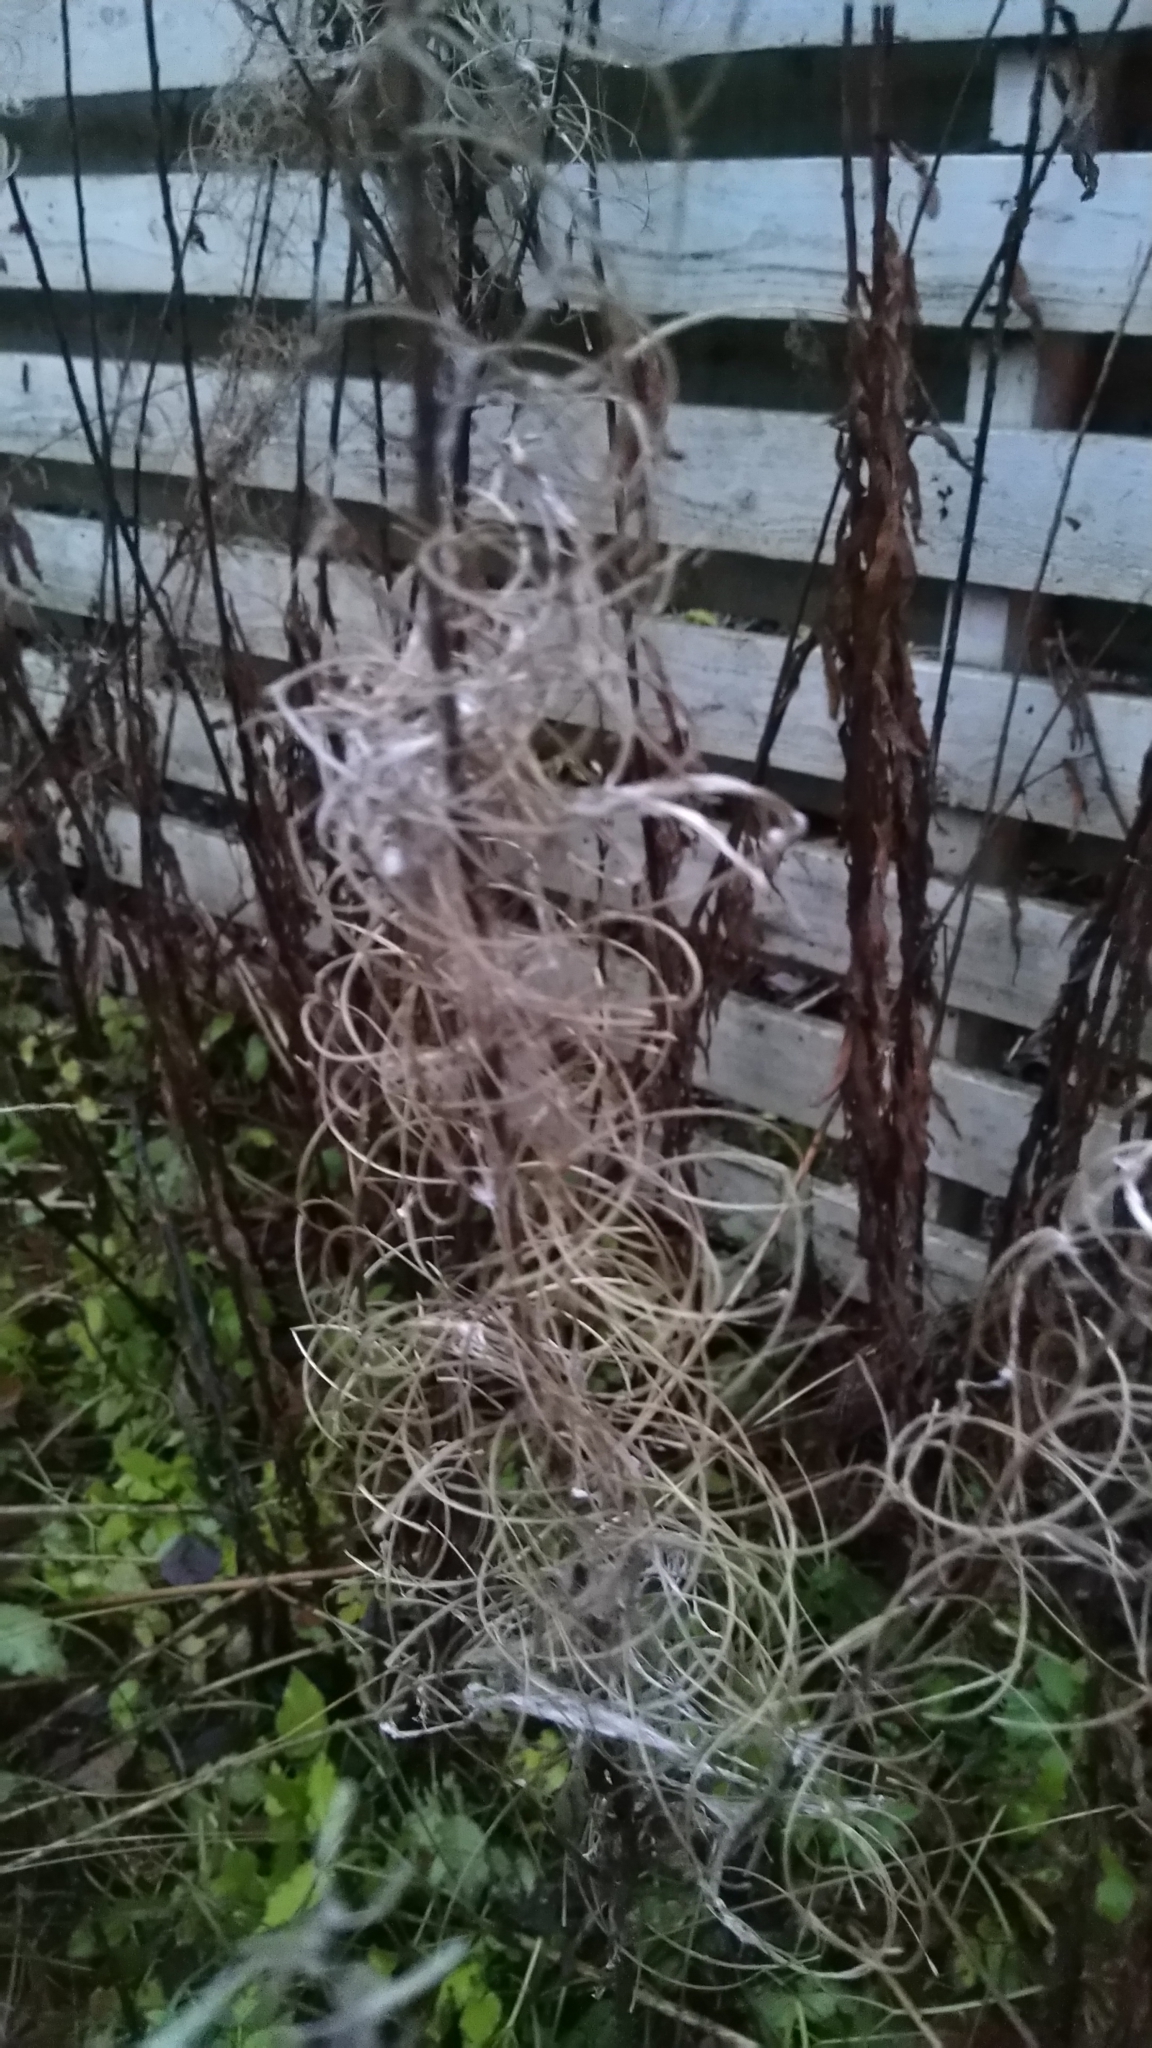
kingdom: Plantae
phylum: Tracheophyta
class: Magnoliopsida
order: Myrtales
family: Onagraceae
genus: Chamaenerion
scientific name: Chamaenerion angustifolium
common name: Fireweed
